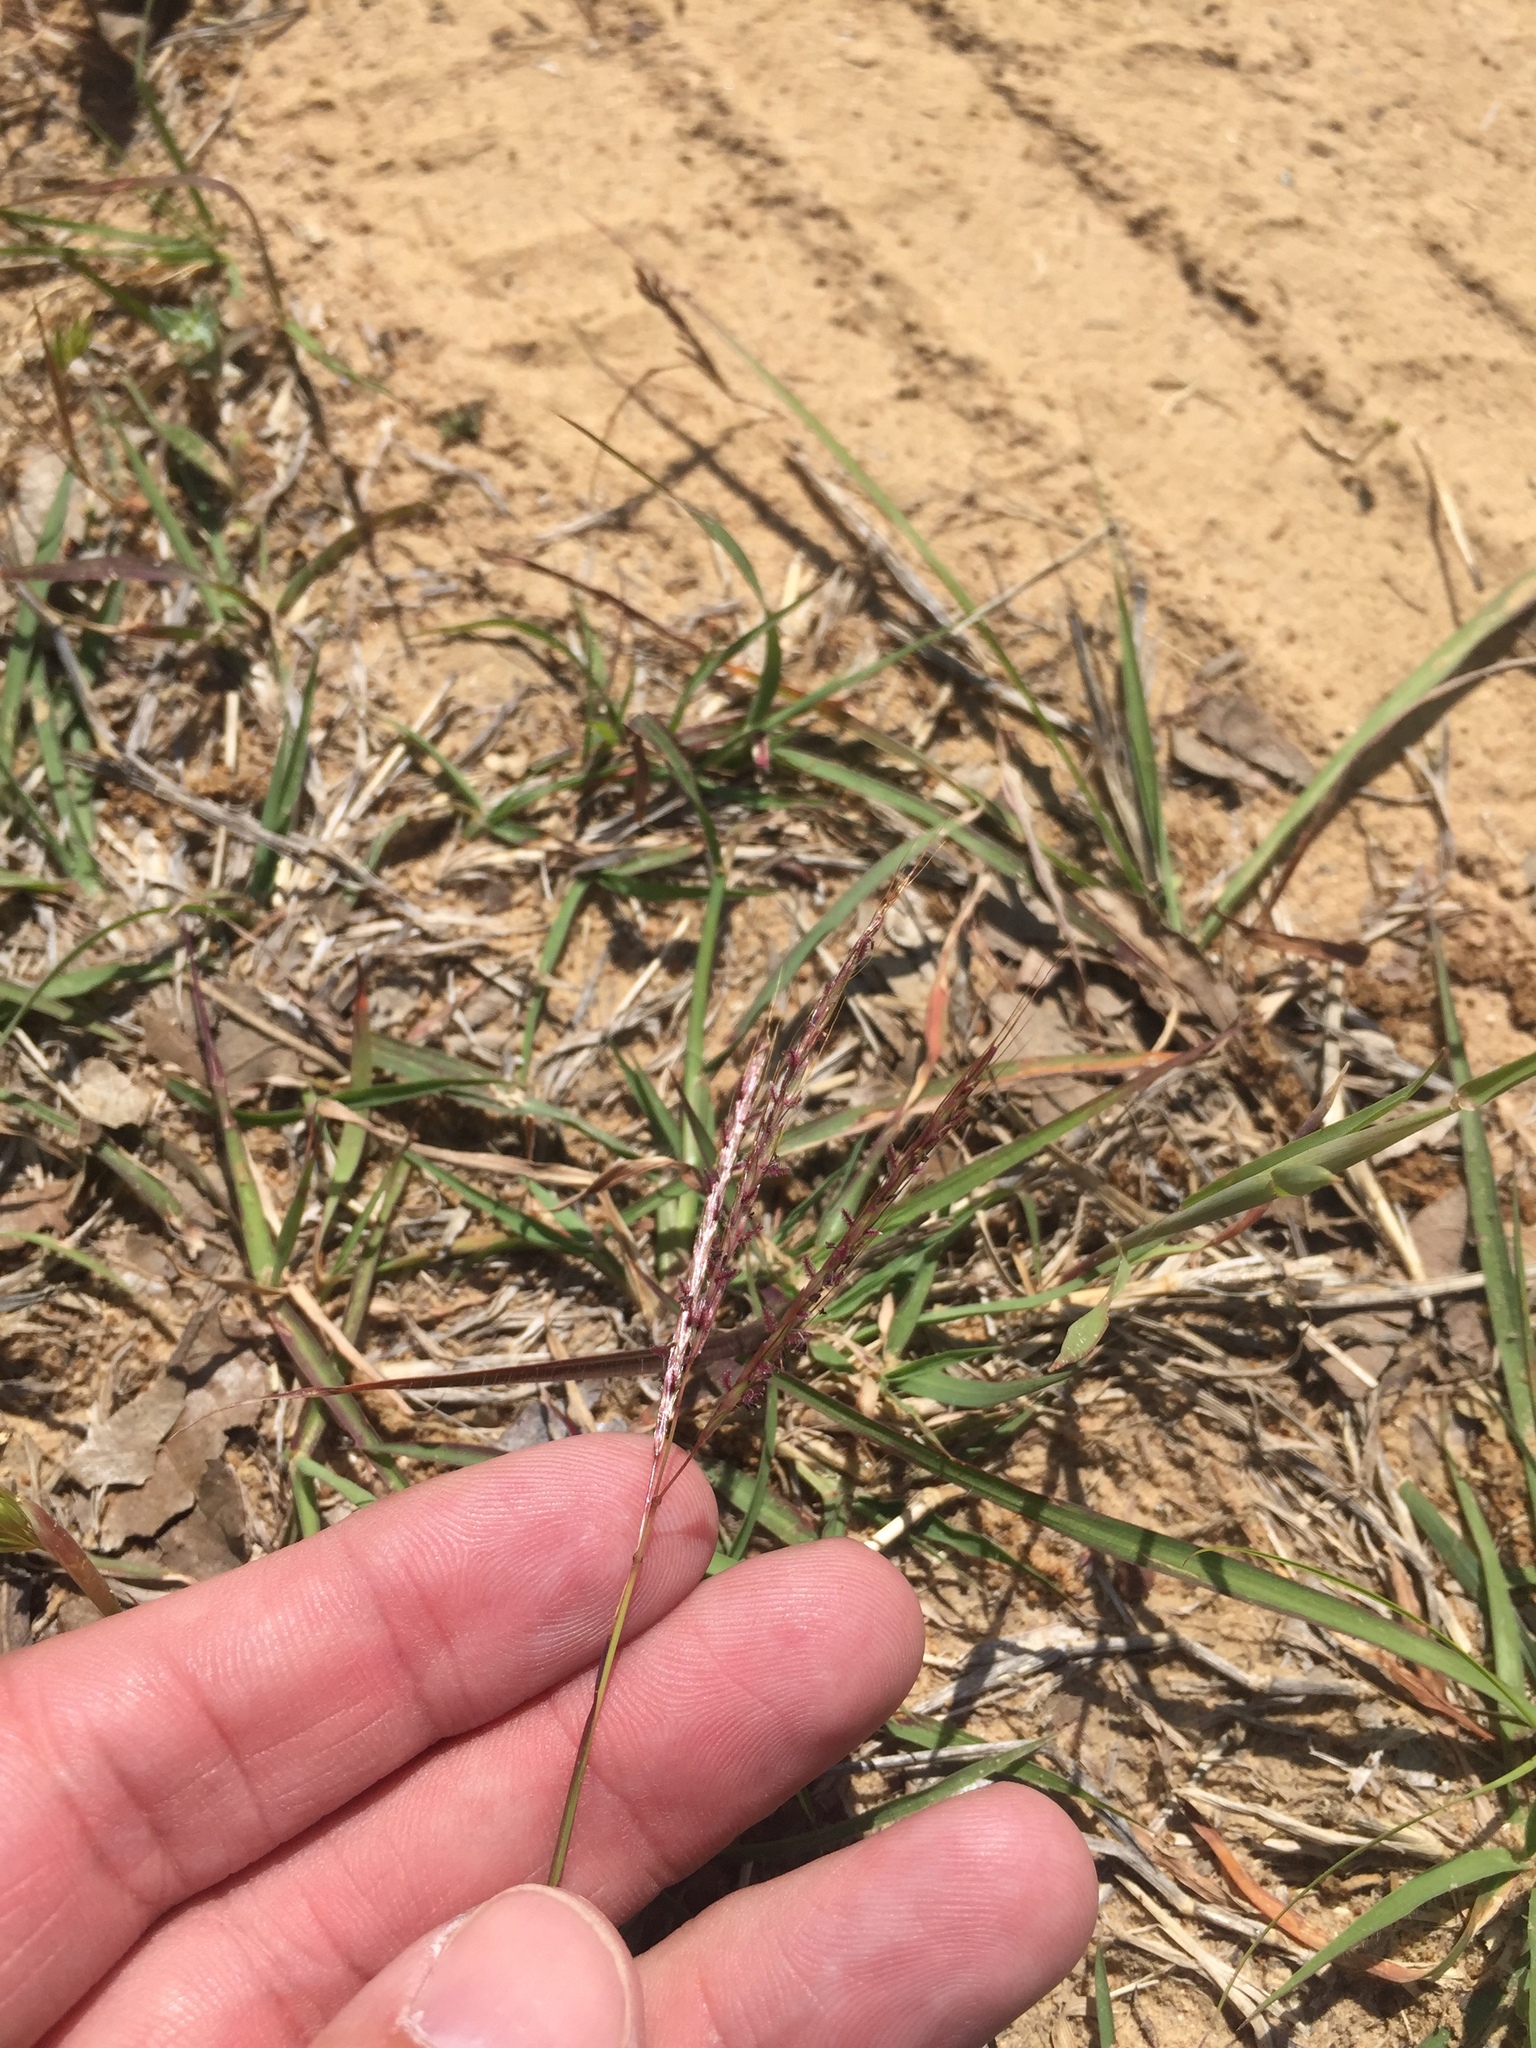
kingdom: Plantae
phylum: Tracheophyta
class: Liliopsida
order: Poales
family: Poaceae
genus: Bothriochloa
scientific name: Bothriochloa ischaemum
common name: Yellow bluestem
